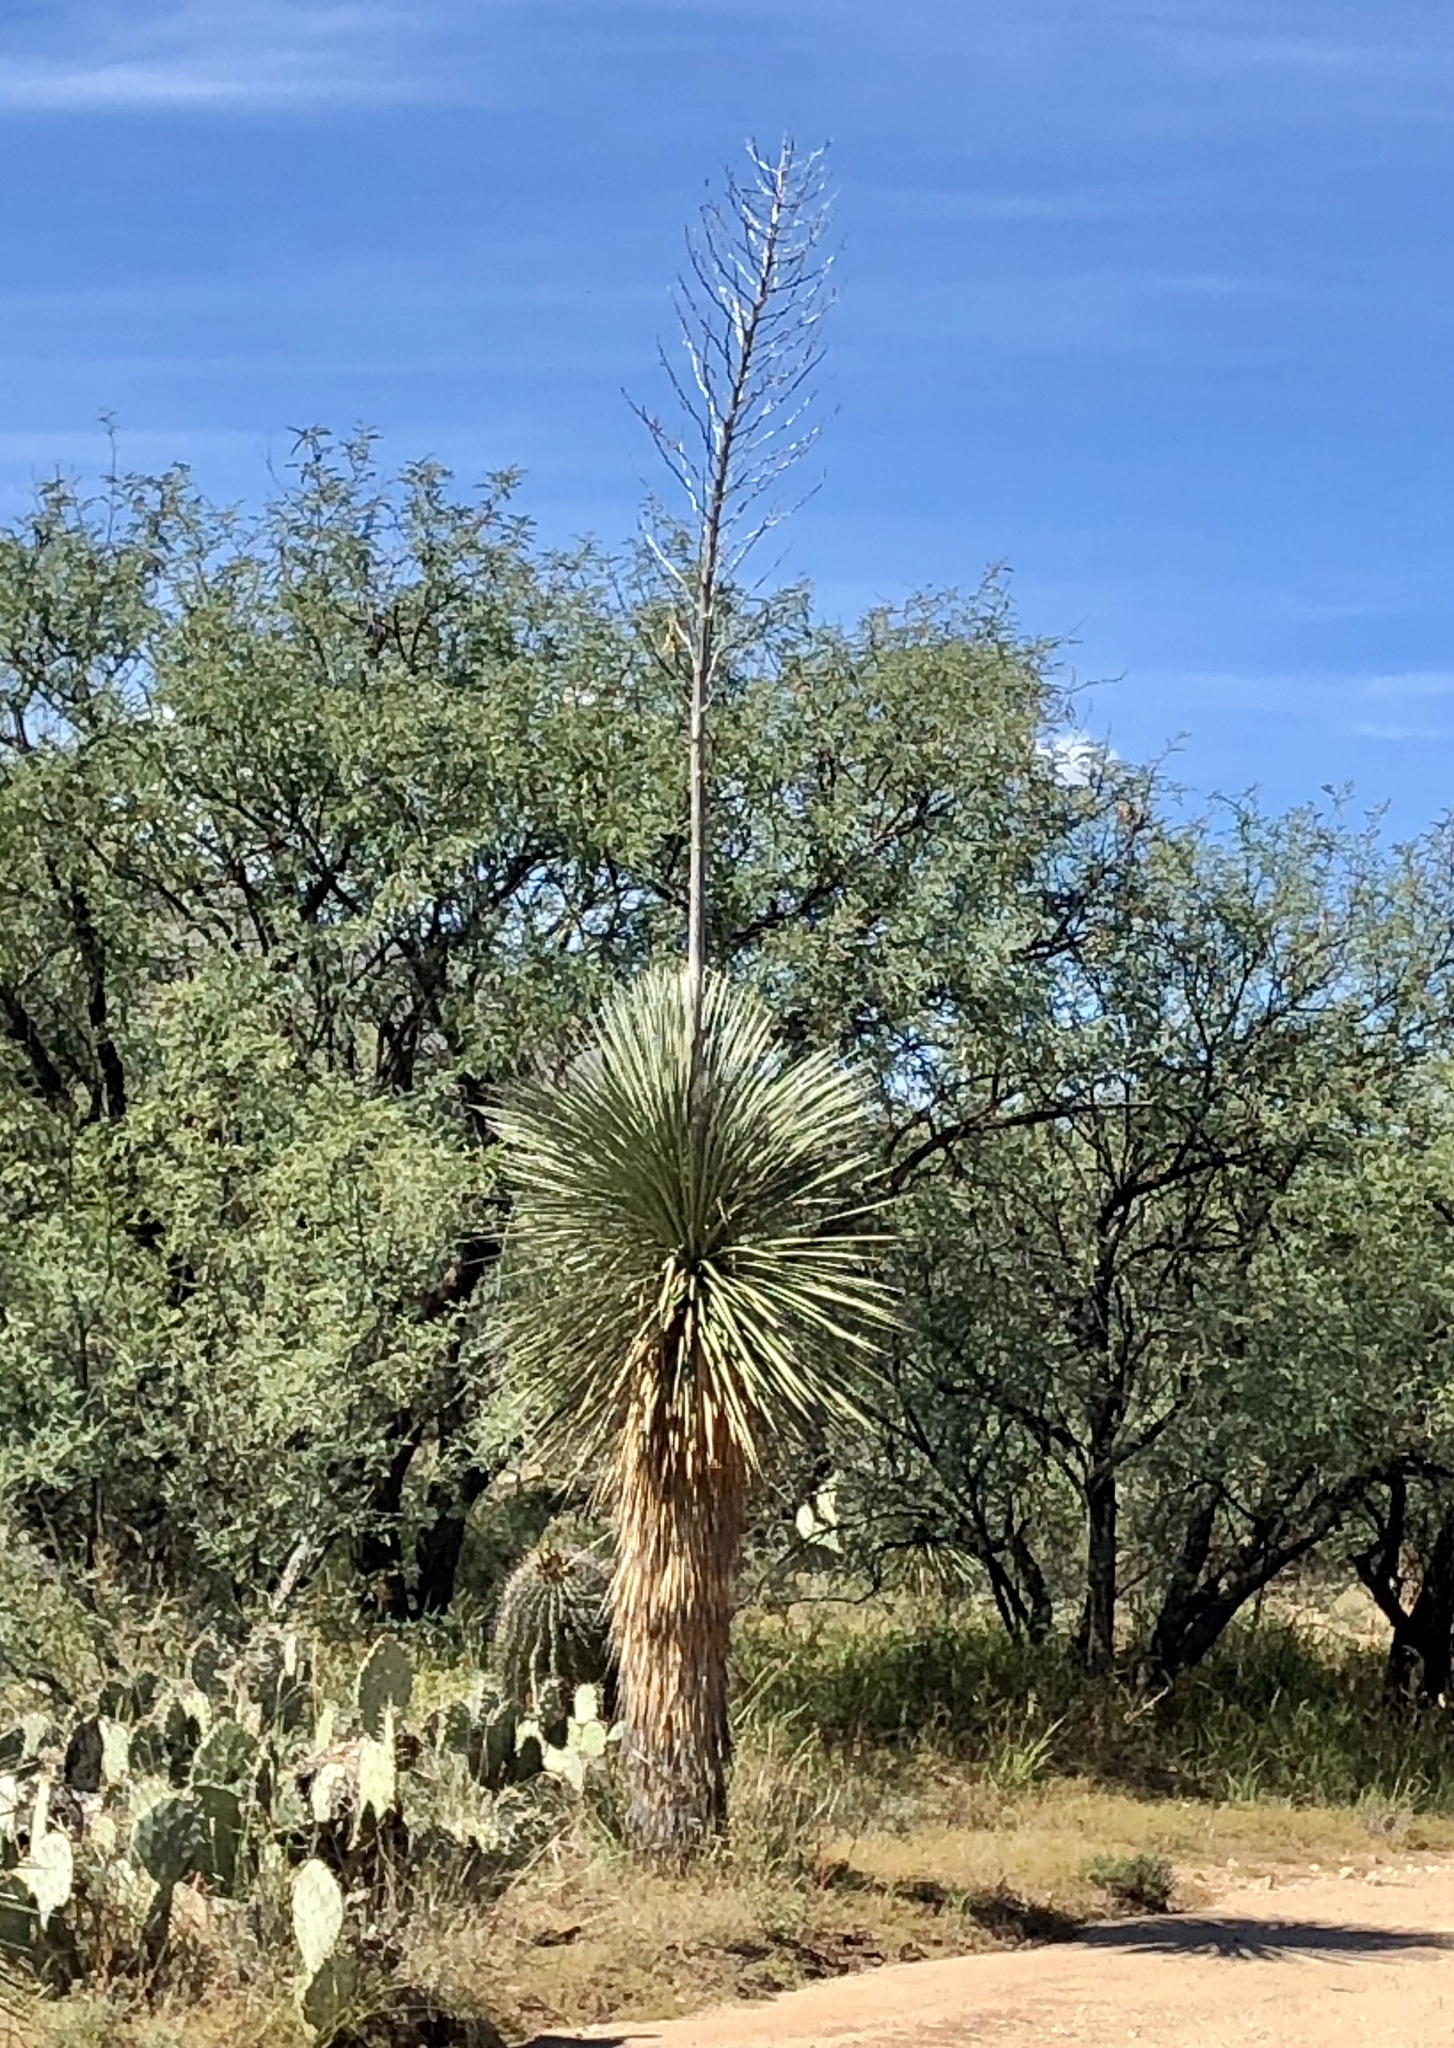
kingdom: Plantae
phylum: Tracheophyta
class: Liliopsida
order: Asparagales
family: Asparagaceae
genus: Yucca
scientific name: Yucca elata
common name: Palmella
